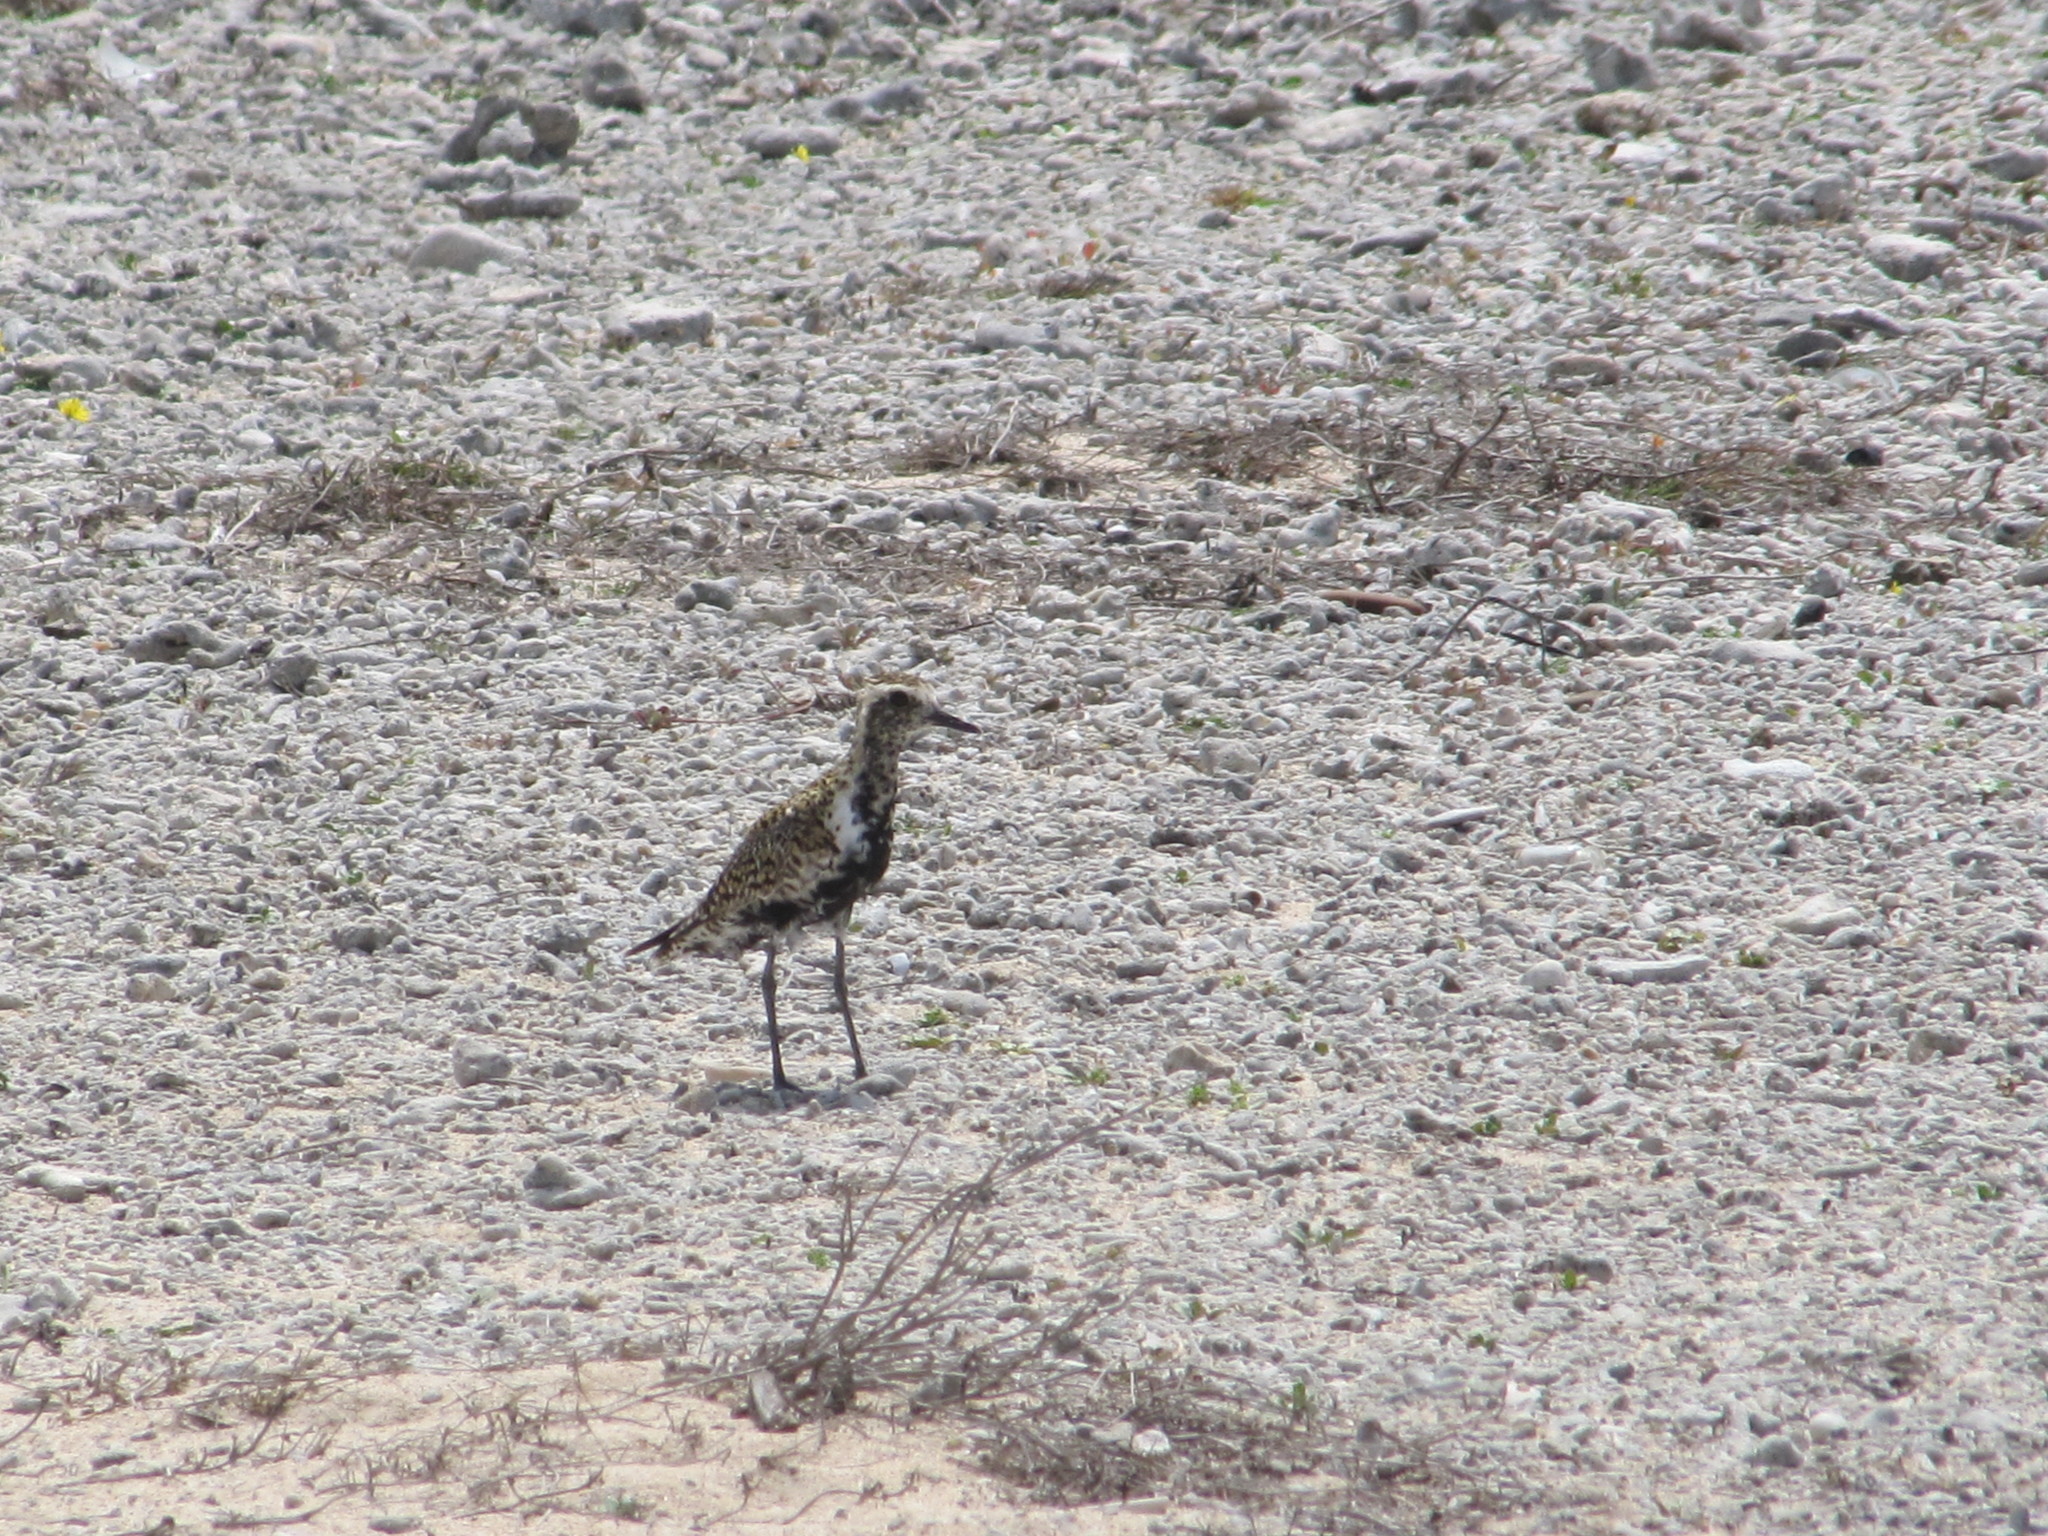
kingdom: Animalia
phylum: Chordata
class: Aves
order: Charadriiformes
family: Charadriidae
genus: Pluvialis
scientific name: Pluvialis fulva
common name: Pacific golden plover
